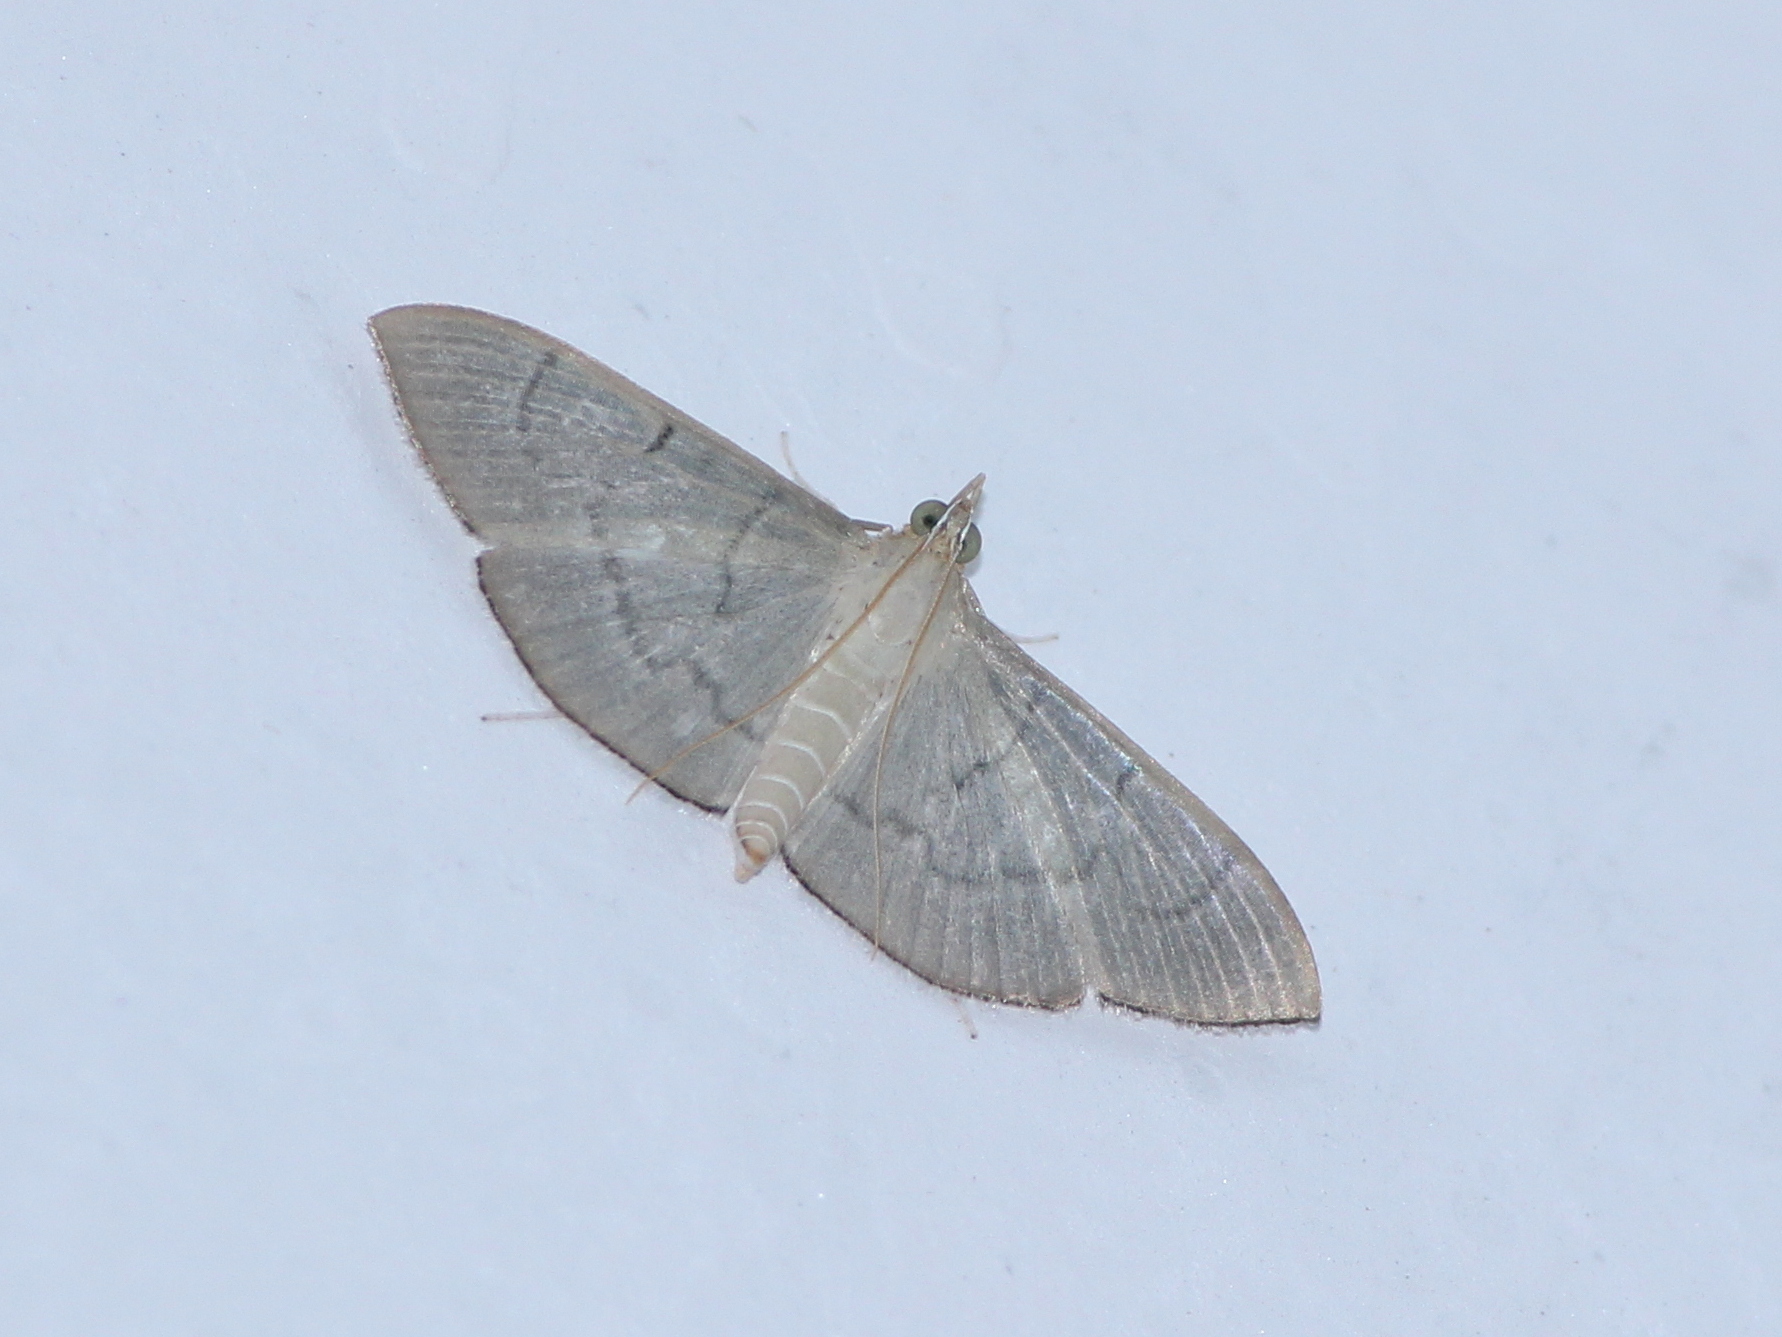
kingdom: Animalia
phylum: Arthropoda
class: Insecta
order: Lepidoptera
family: Crambidae
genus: Lamprophaia
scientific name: Lamprophaia ablactalis
